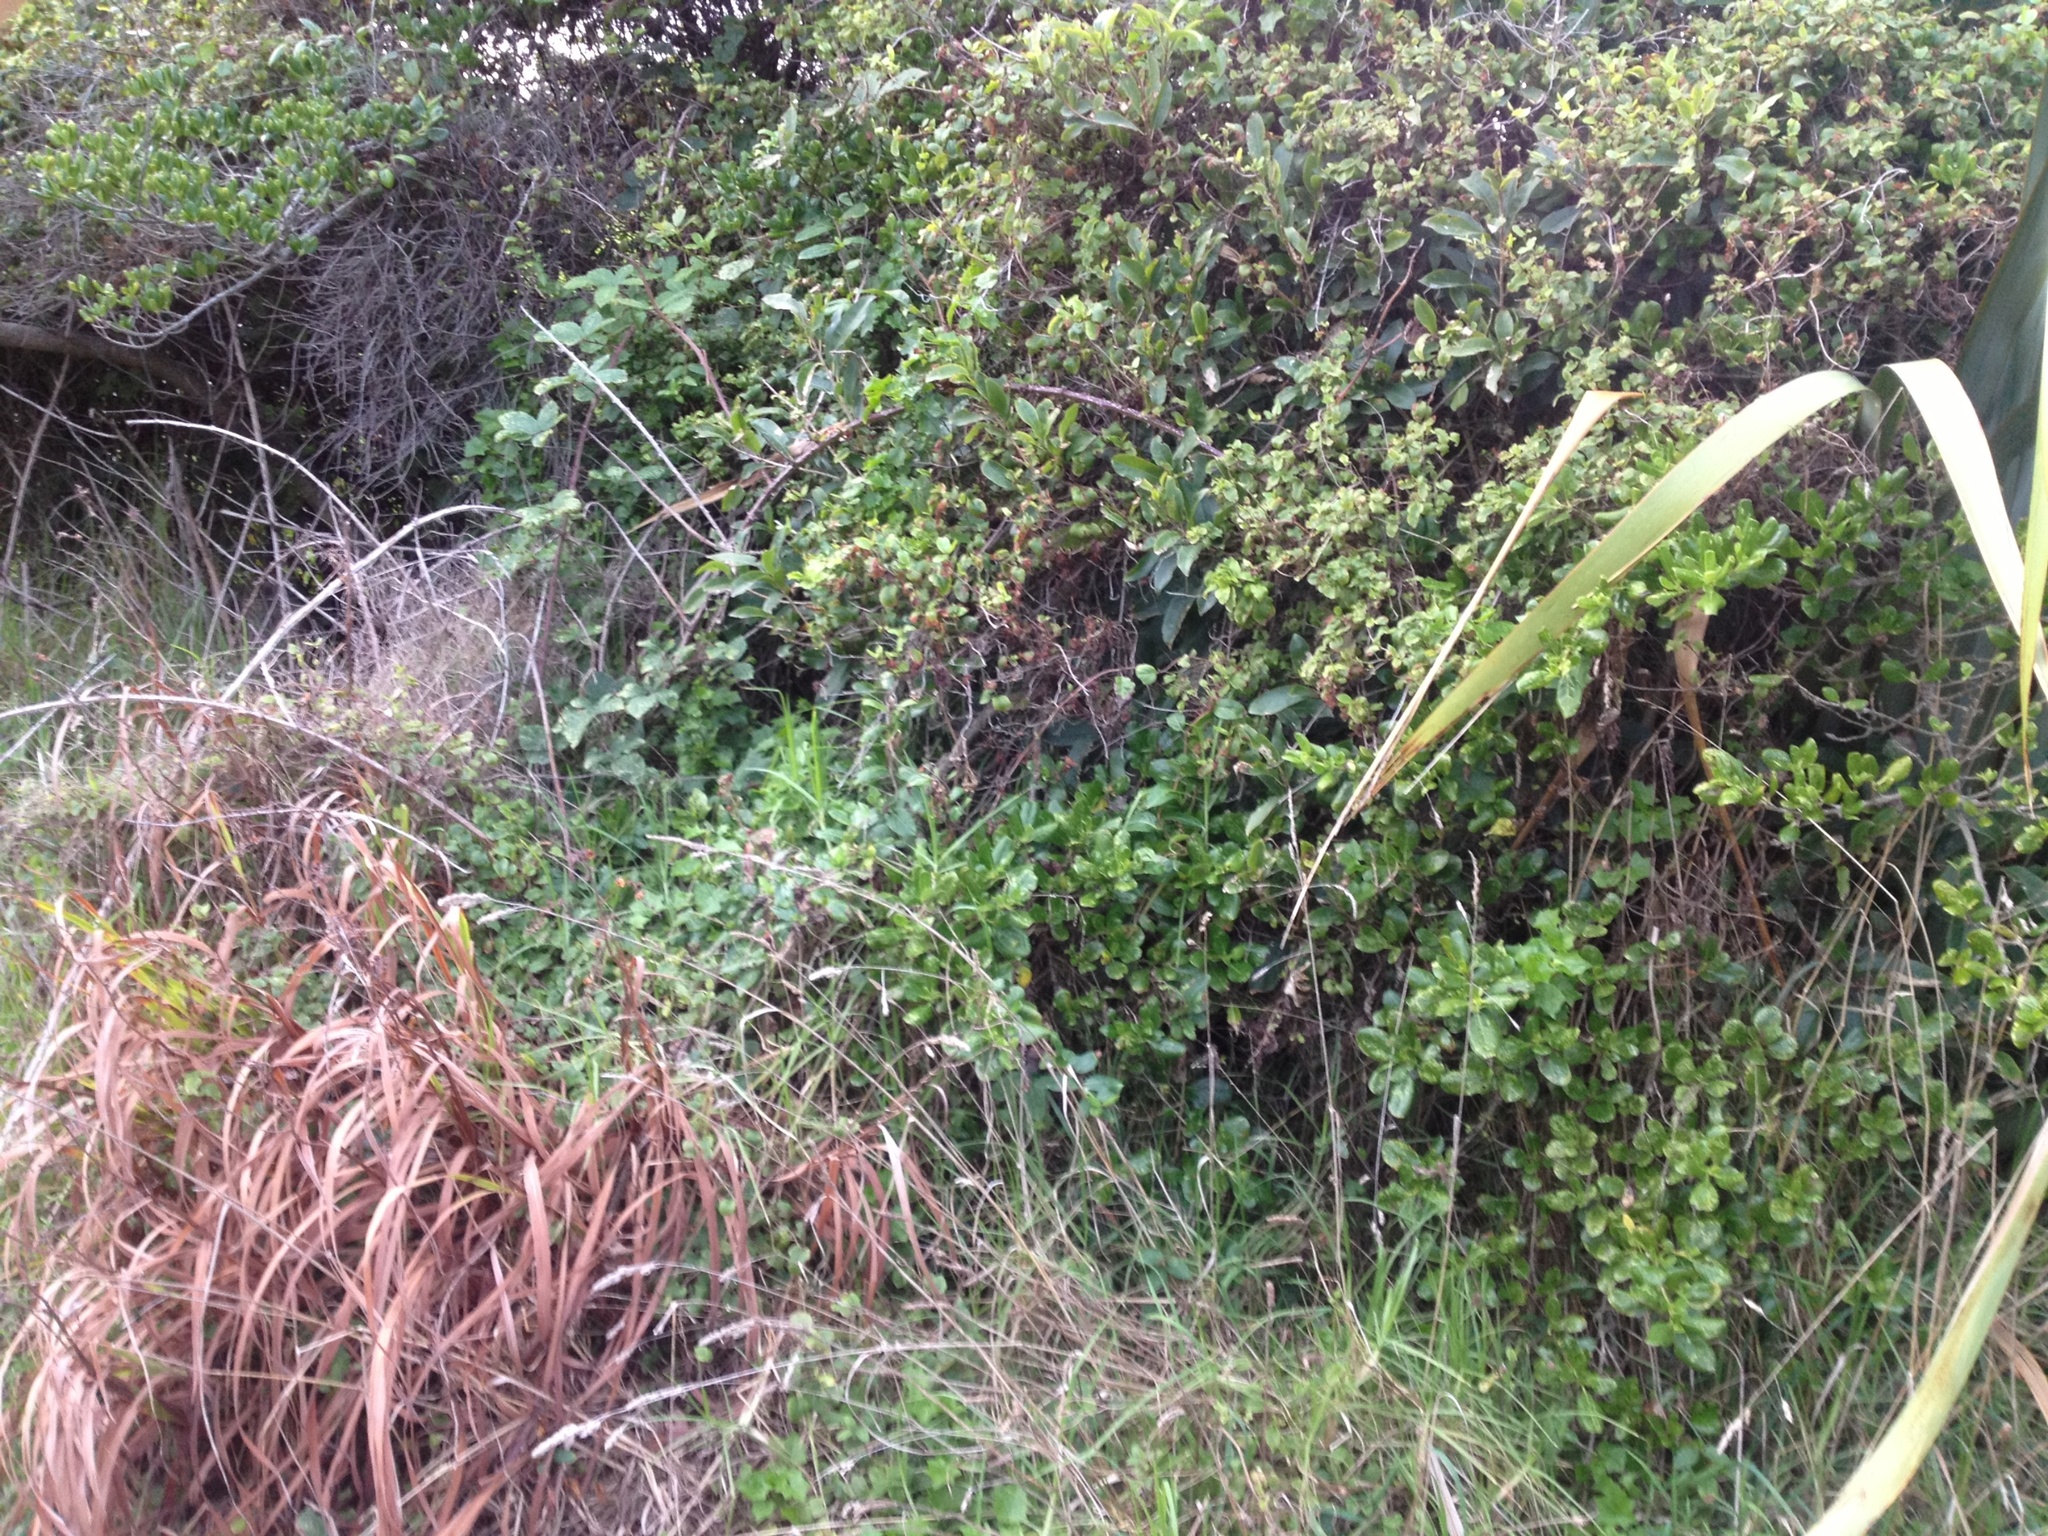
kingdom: Plantae
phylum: Tracheophyta
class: Magnoliopsida
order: Asterales
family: Asteraceae
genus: Delairea
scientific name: Delairea odorata
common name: Cape-ivy
